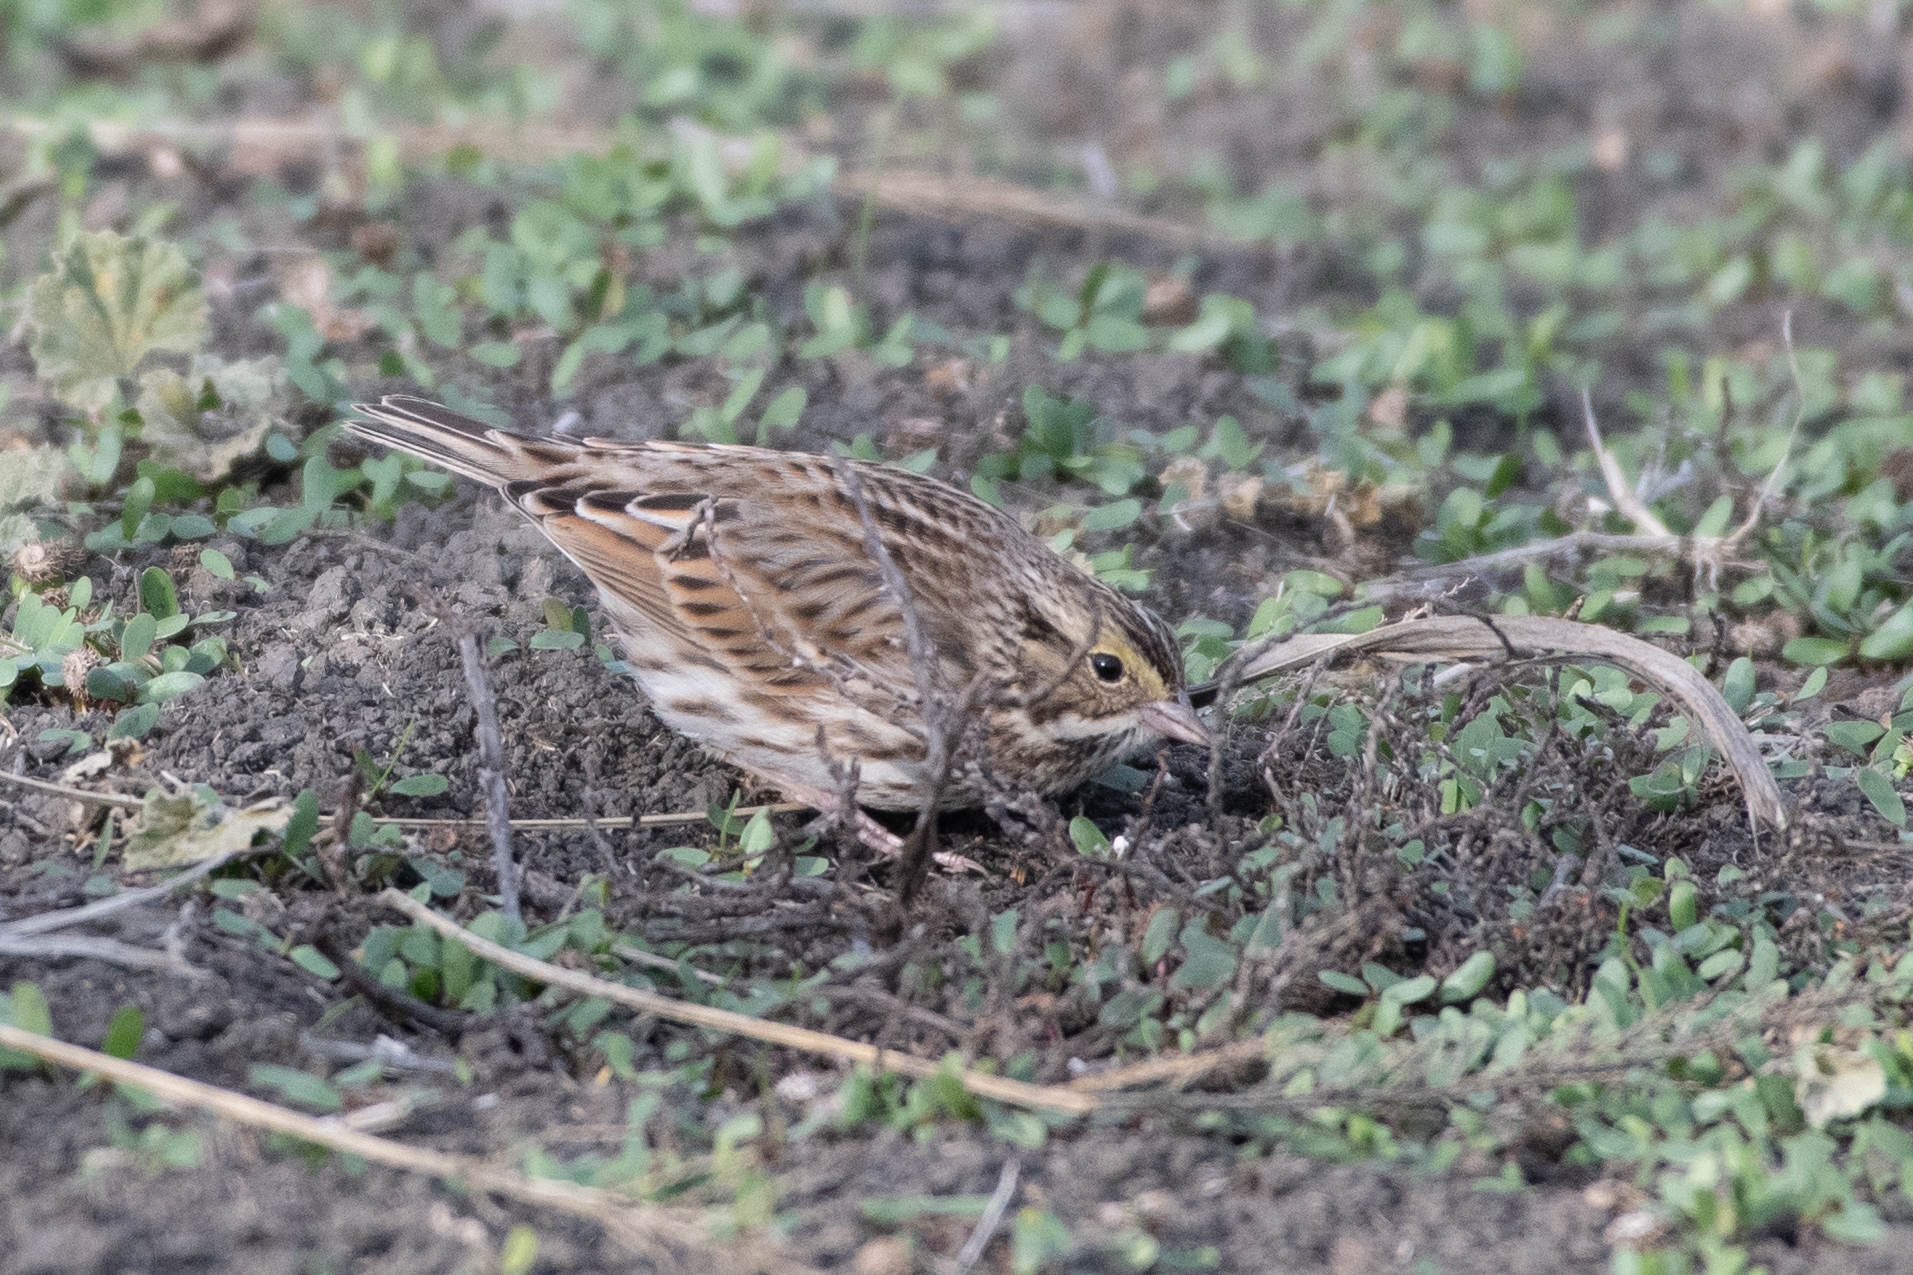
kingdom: Animalia
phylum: Chordata
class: Aves
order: Passeriformes
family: Passerellidae
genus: Passerculus
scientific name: Passerculus sandwichensis
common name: Savannah sparrow
